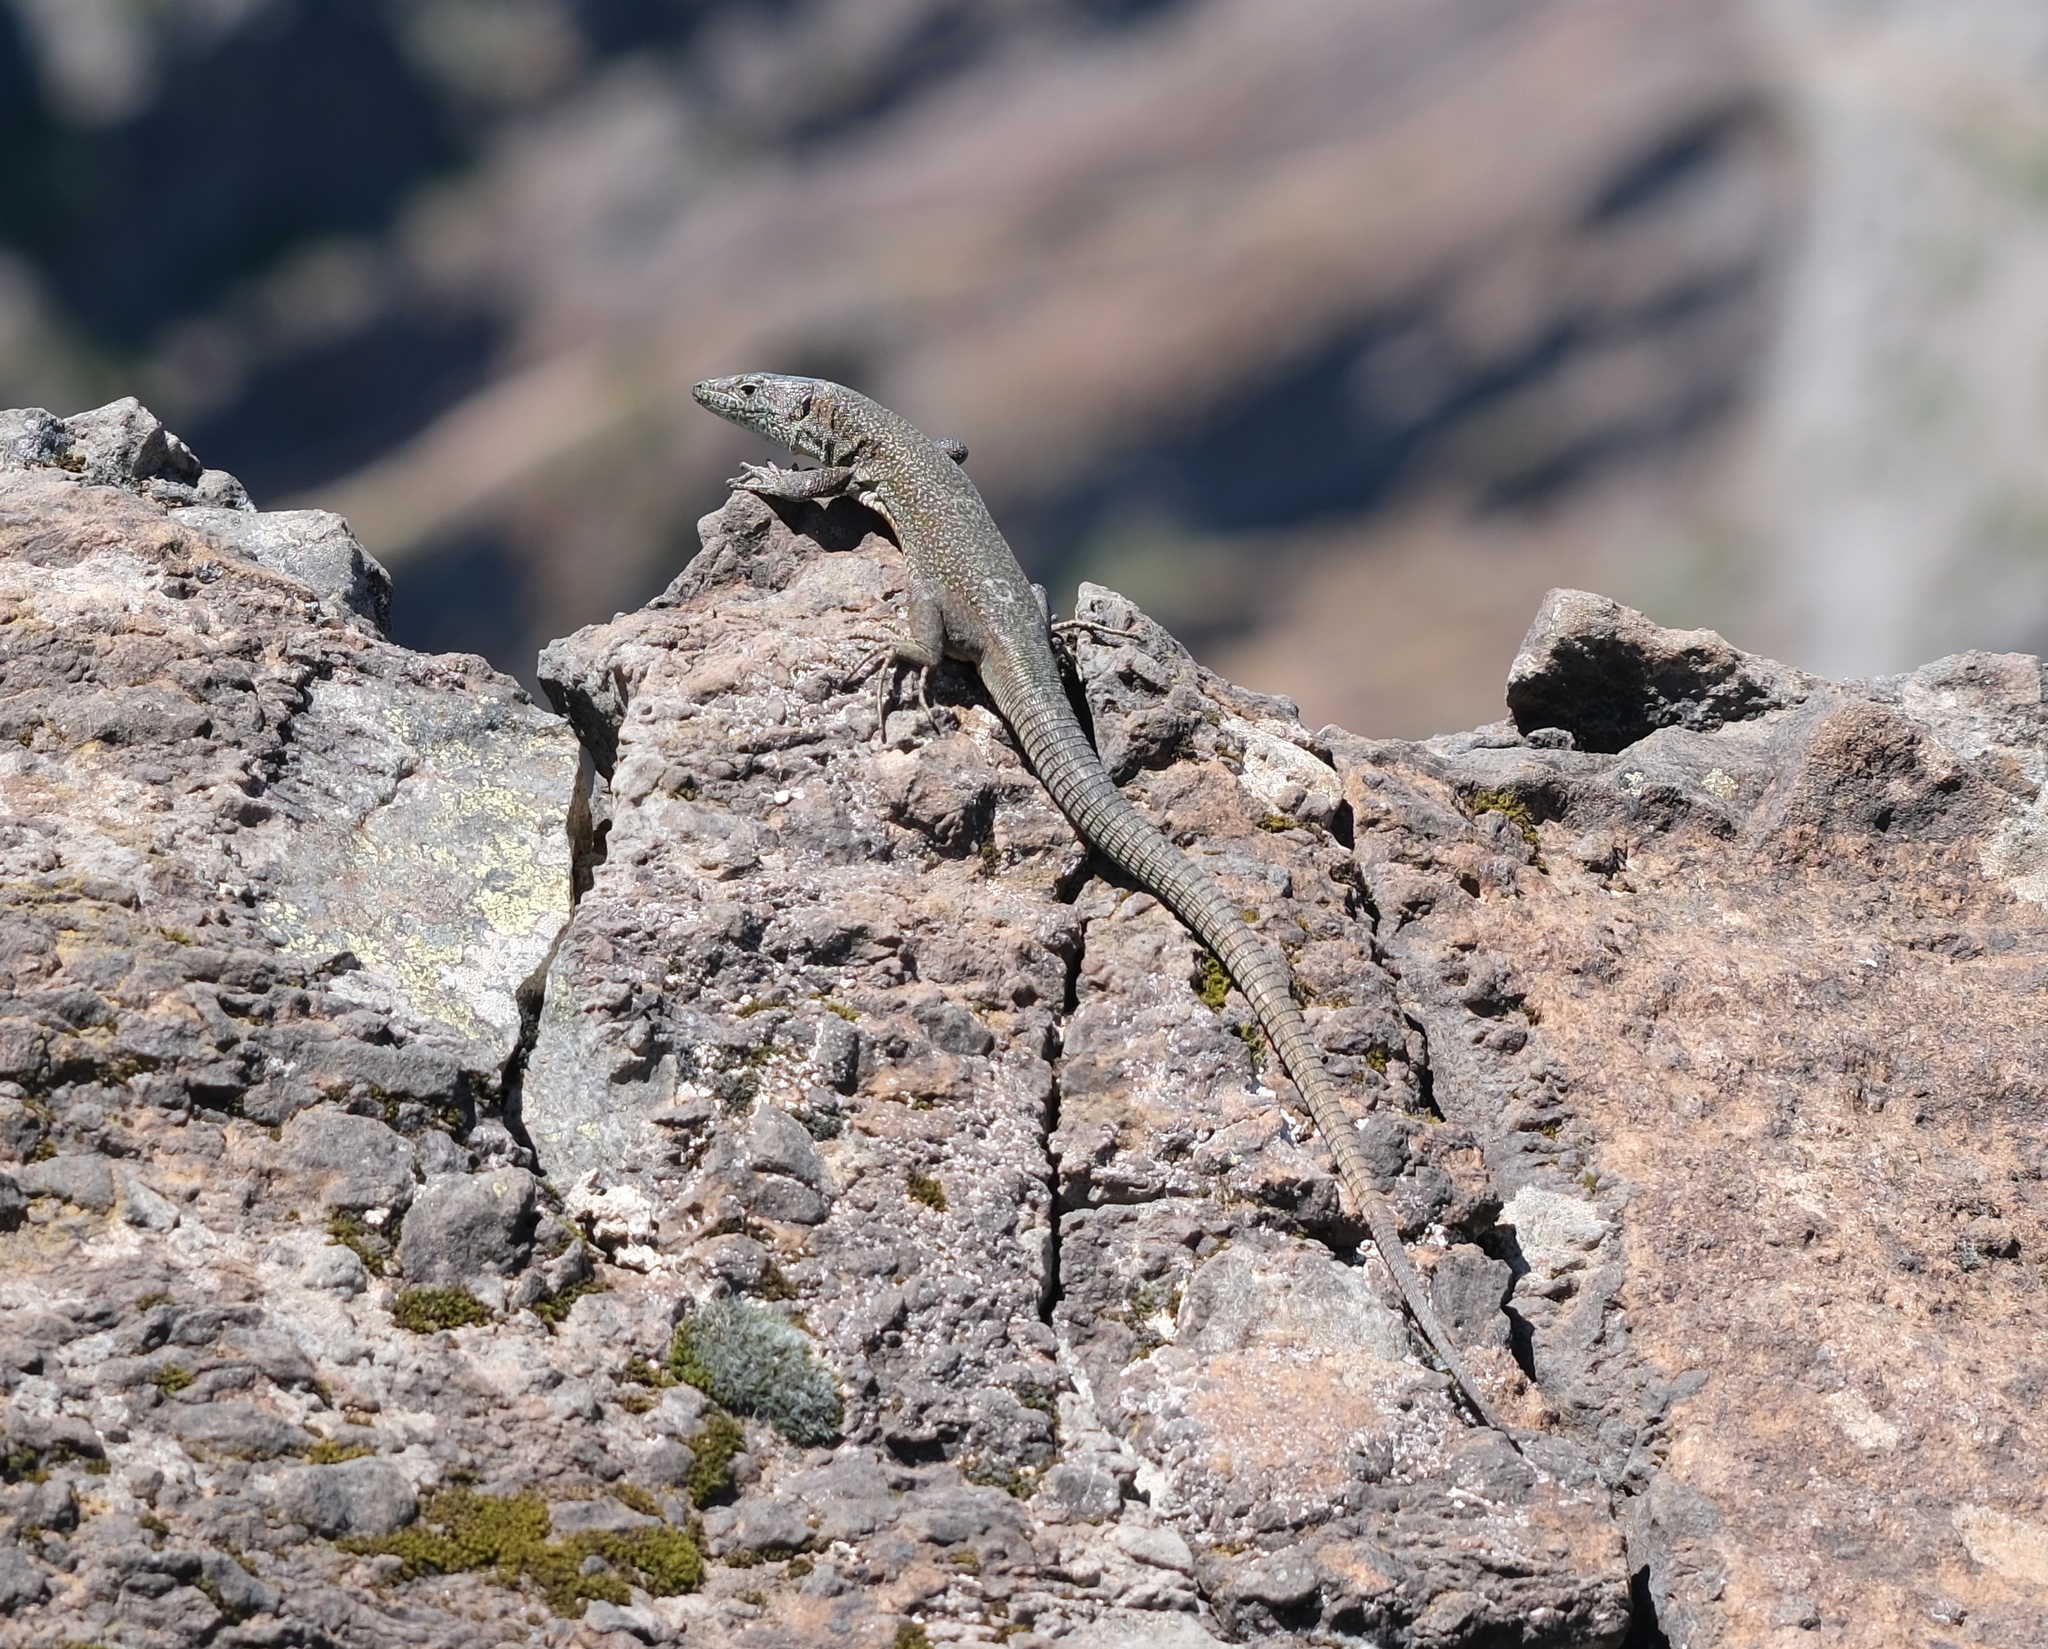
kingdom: Animalia
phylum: Chordata
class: Squamata
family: Lacertidae
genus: Teira
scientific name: Teira dugesii
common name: Madeira lizard
